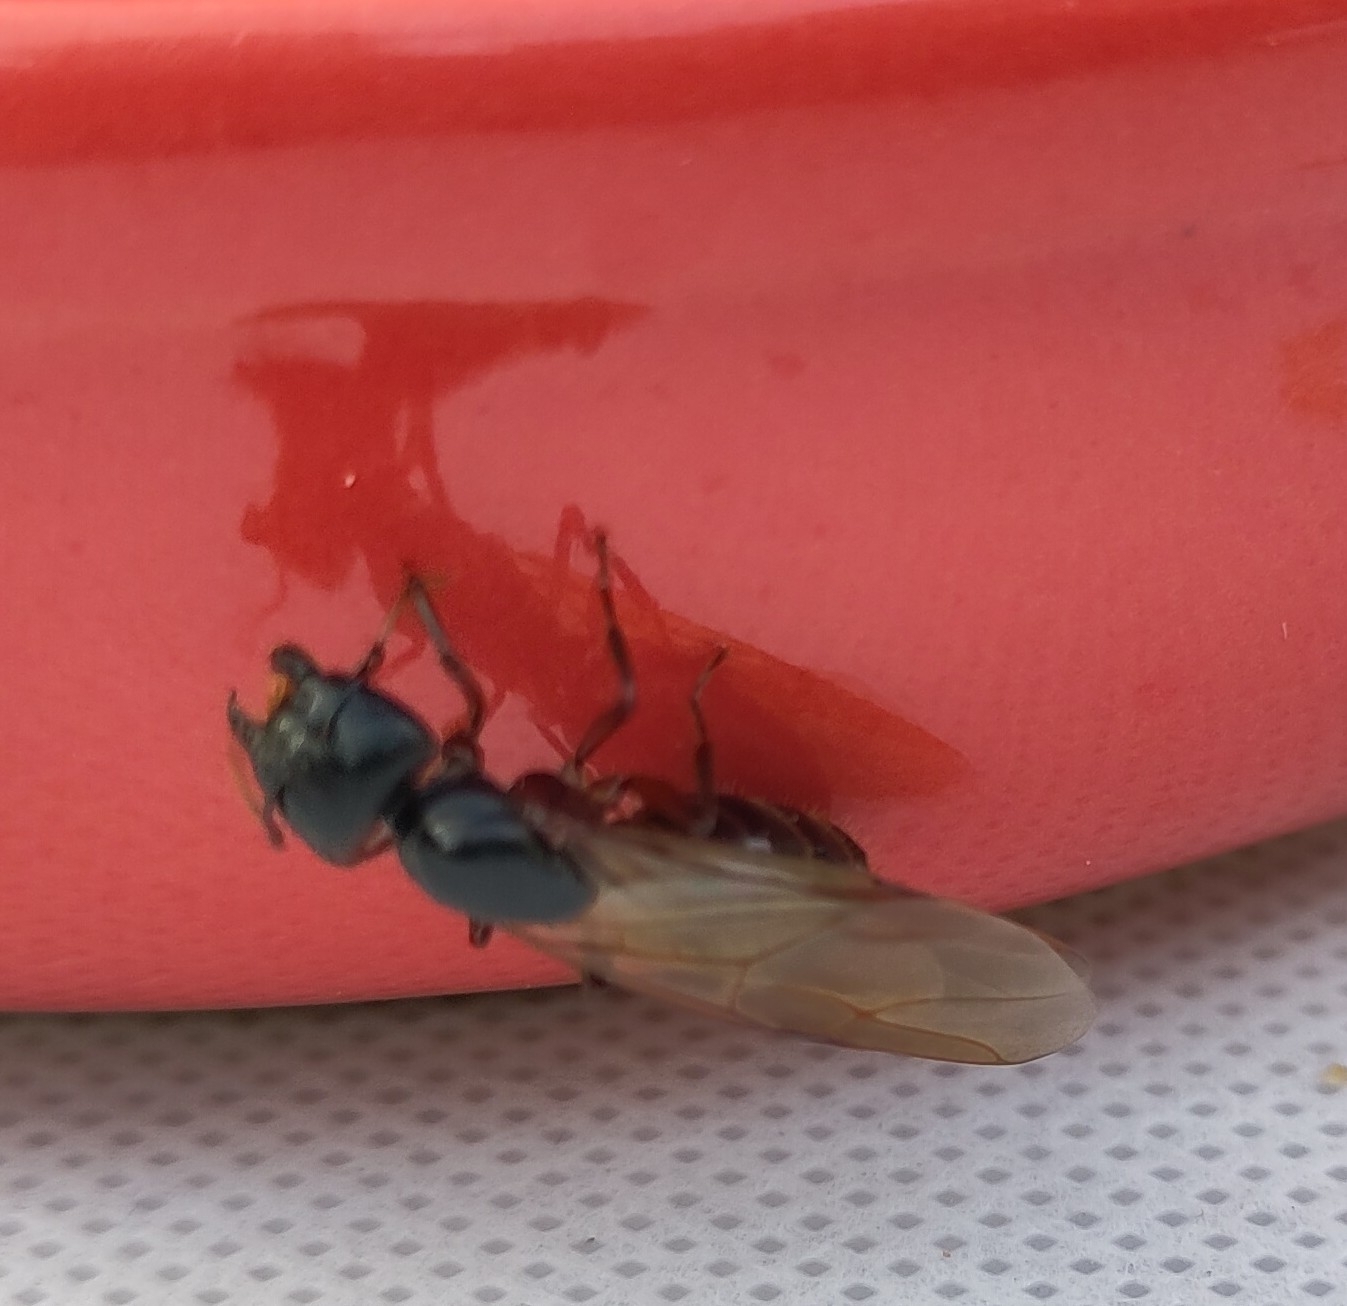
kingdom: Animalia
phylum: Arthropoda
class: Insecta
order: Hymenoptera
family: Formicidae
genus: Camponotus
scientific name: Camponotus herculeanus
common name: Hercules ant
